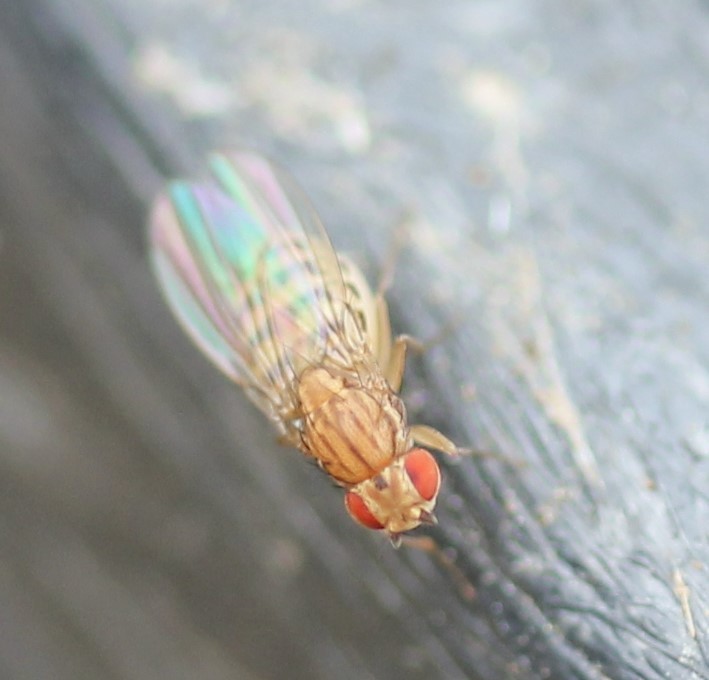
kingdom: Animalia
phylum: Arthropoda
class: Insecta
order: Diptera
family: Drosophilidae
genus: Drosophila
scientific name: Drosophila busckii
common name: Pomace fly
